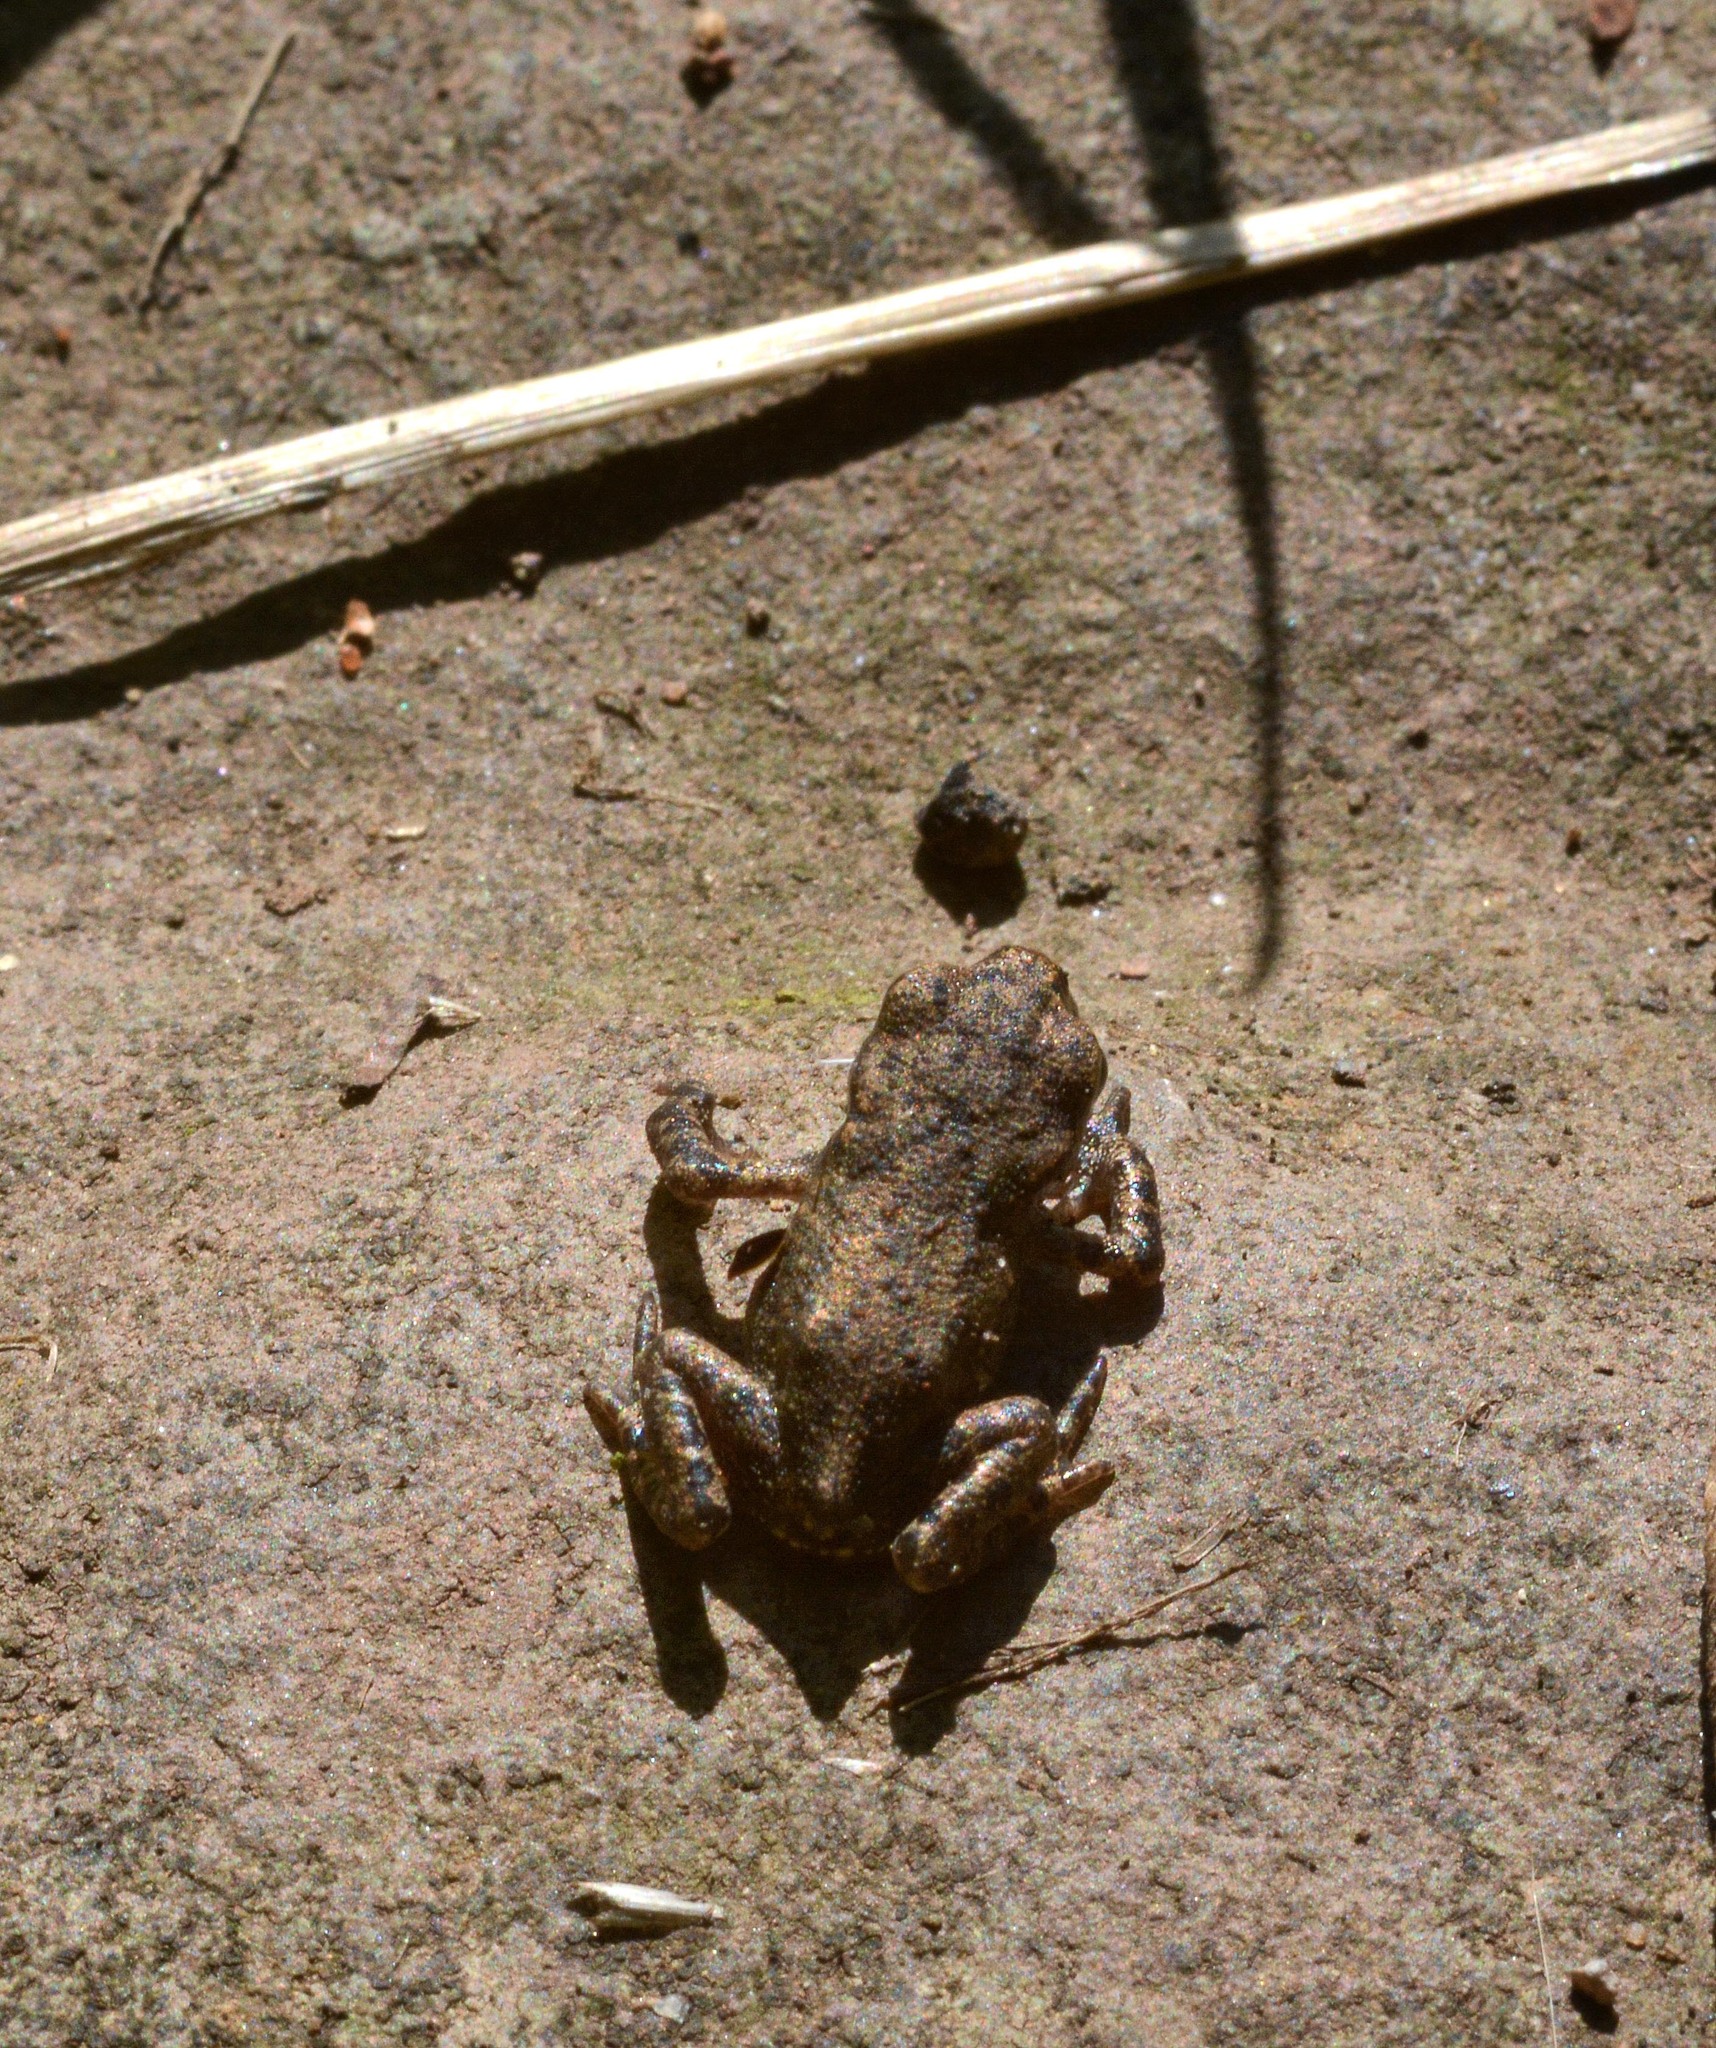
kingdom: Animalia
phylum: Chordata
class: Amphibia
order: Anura
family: Bufonidae
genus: Bufo
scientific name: Bufo bufo
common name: Common toad
